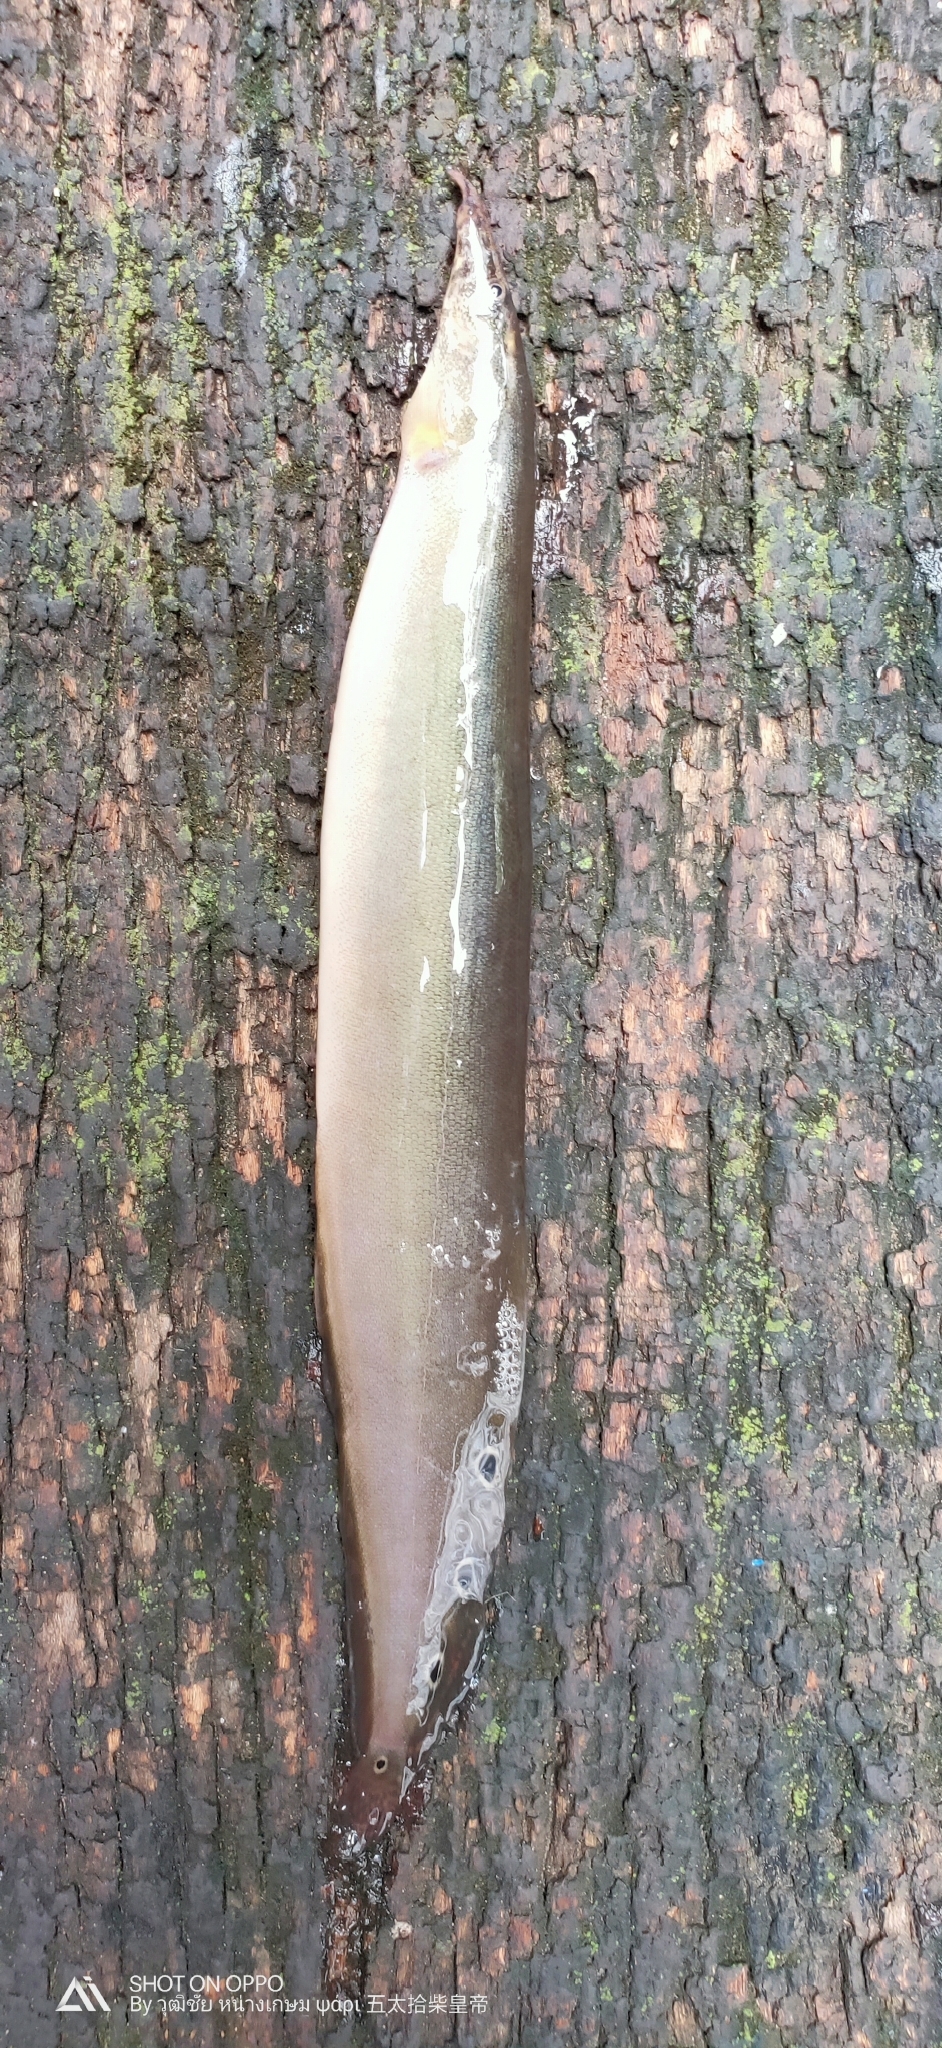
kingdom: Animalia
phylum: Chordata
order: Synbranchiformes
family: Mastacembelidae
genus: Macrognathus
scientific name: Macrognathus siamensis
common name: Spotfin spiny eel
